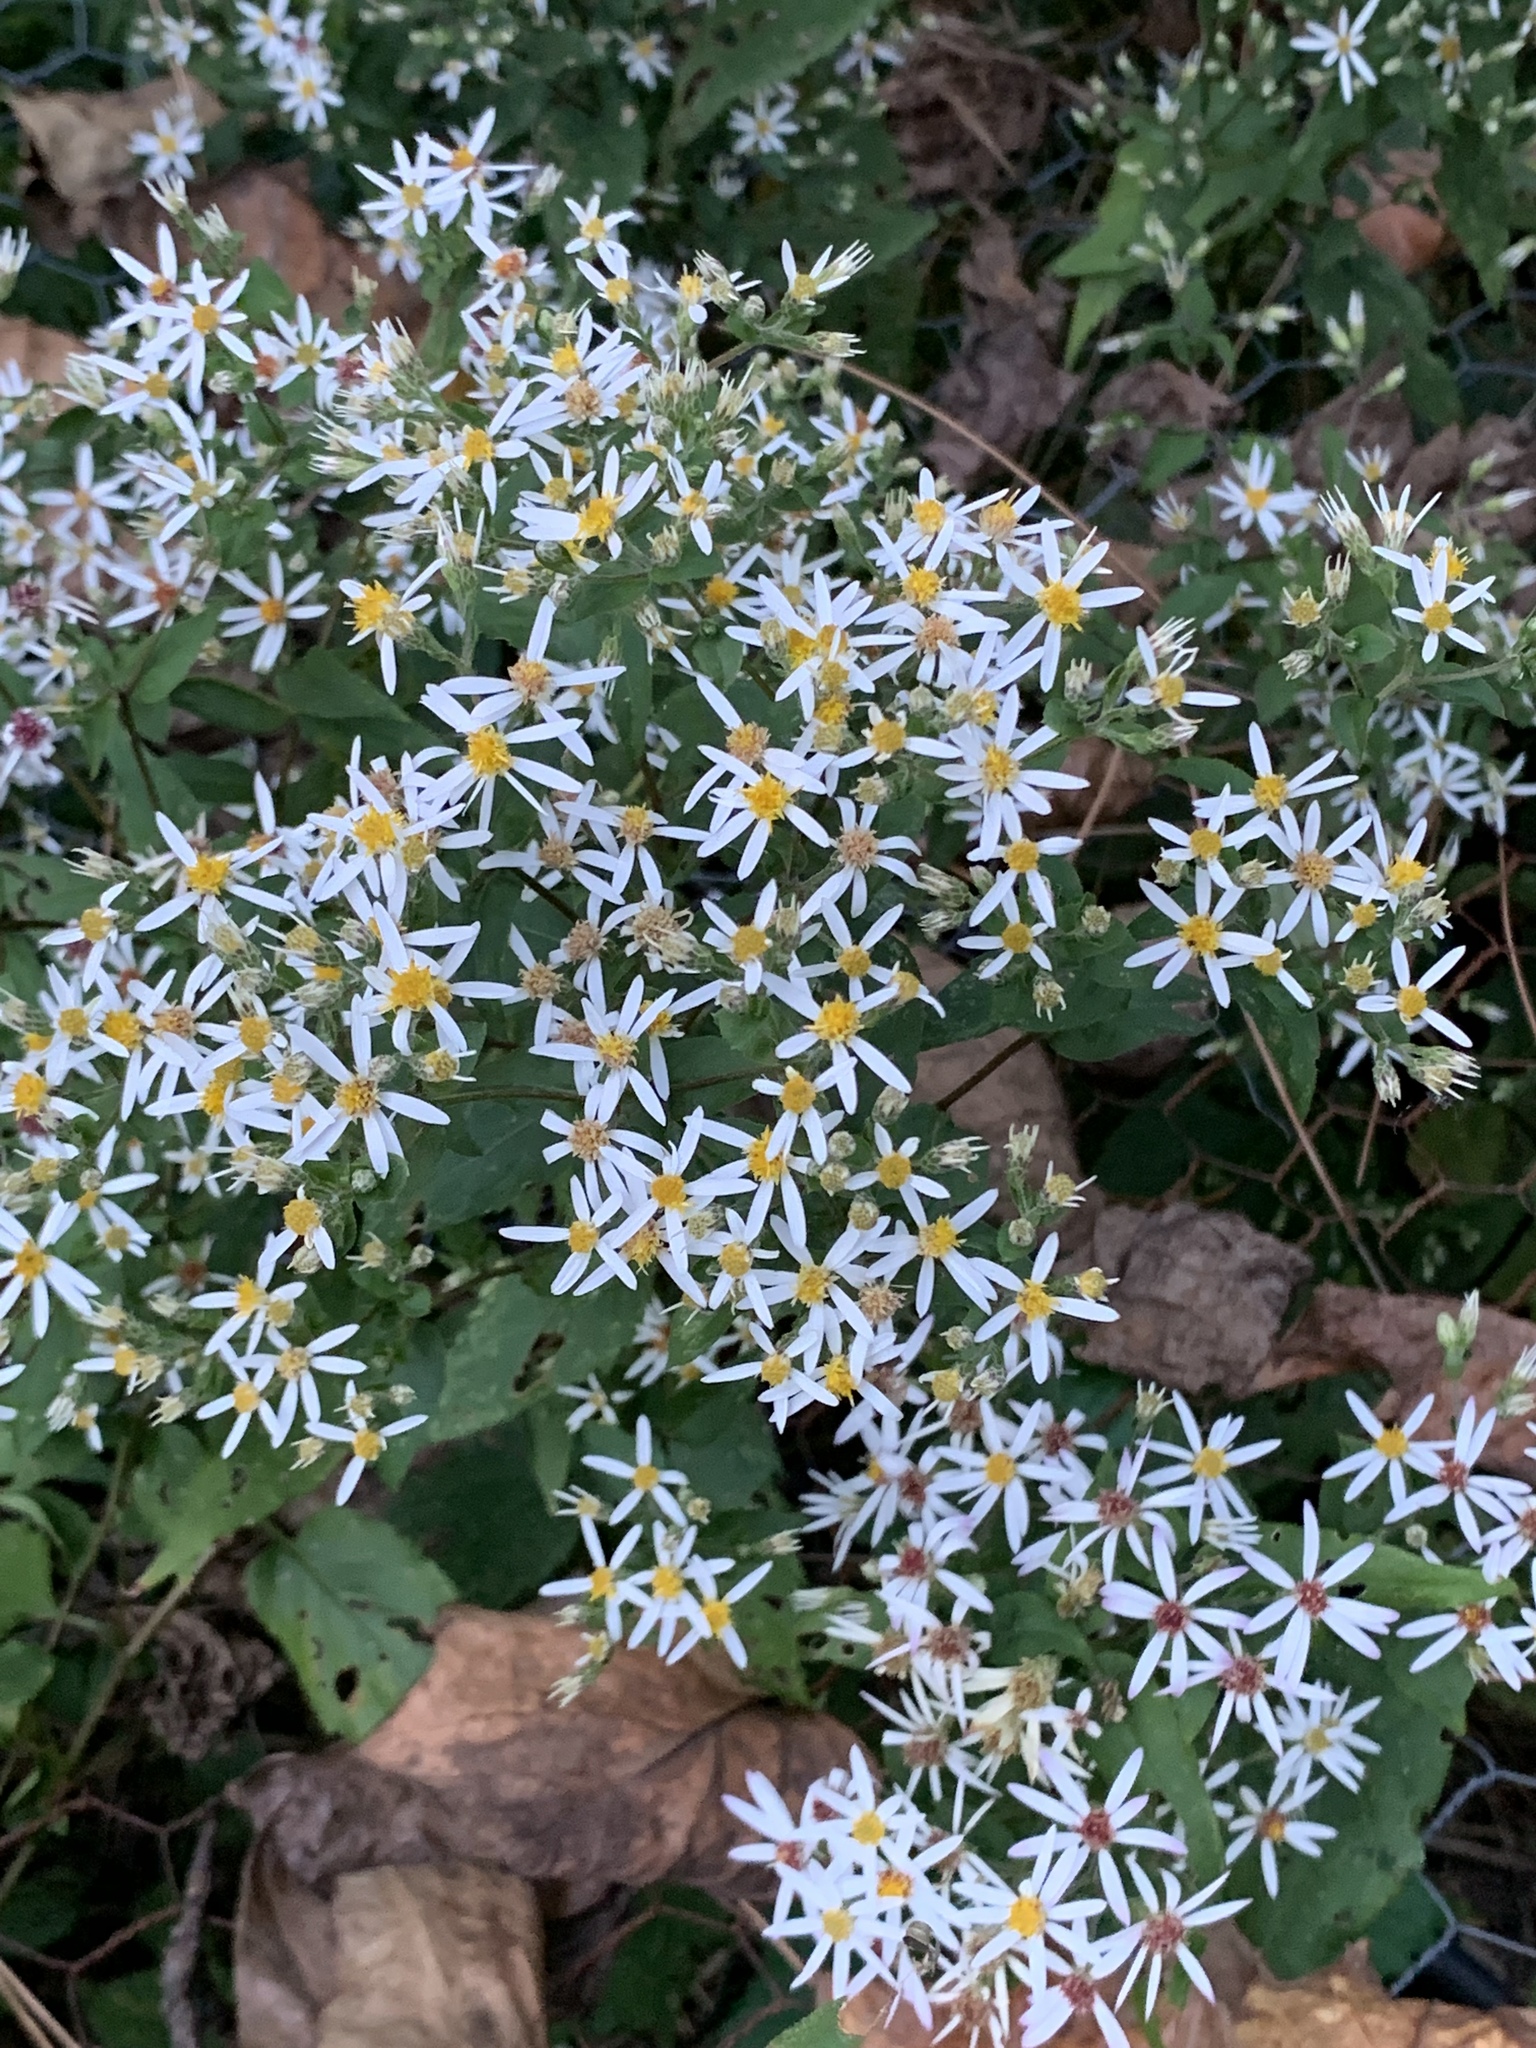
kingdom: Plantae
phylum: Tracheophyta
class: Magnoliopsida
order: Asterales
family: Asteraceae
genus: Eurybia
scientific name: Eurybia divaricata
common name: White wood aster
